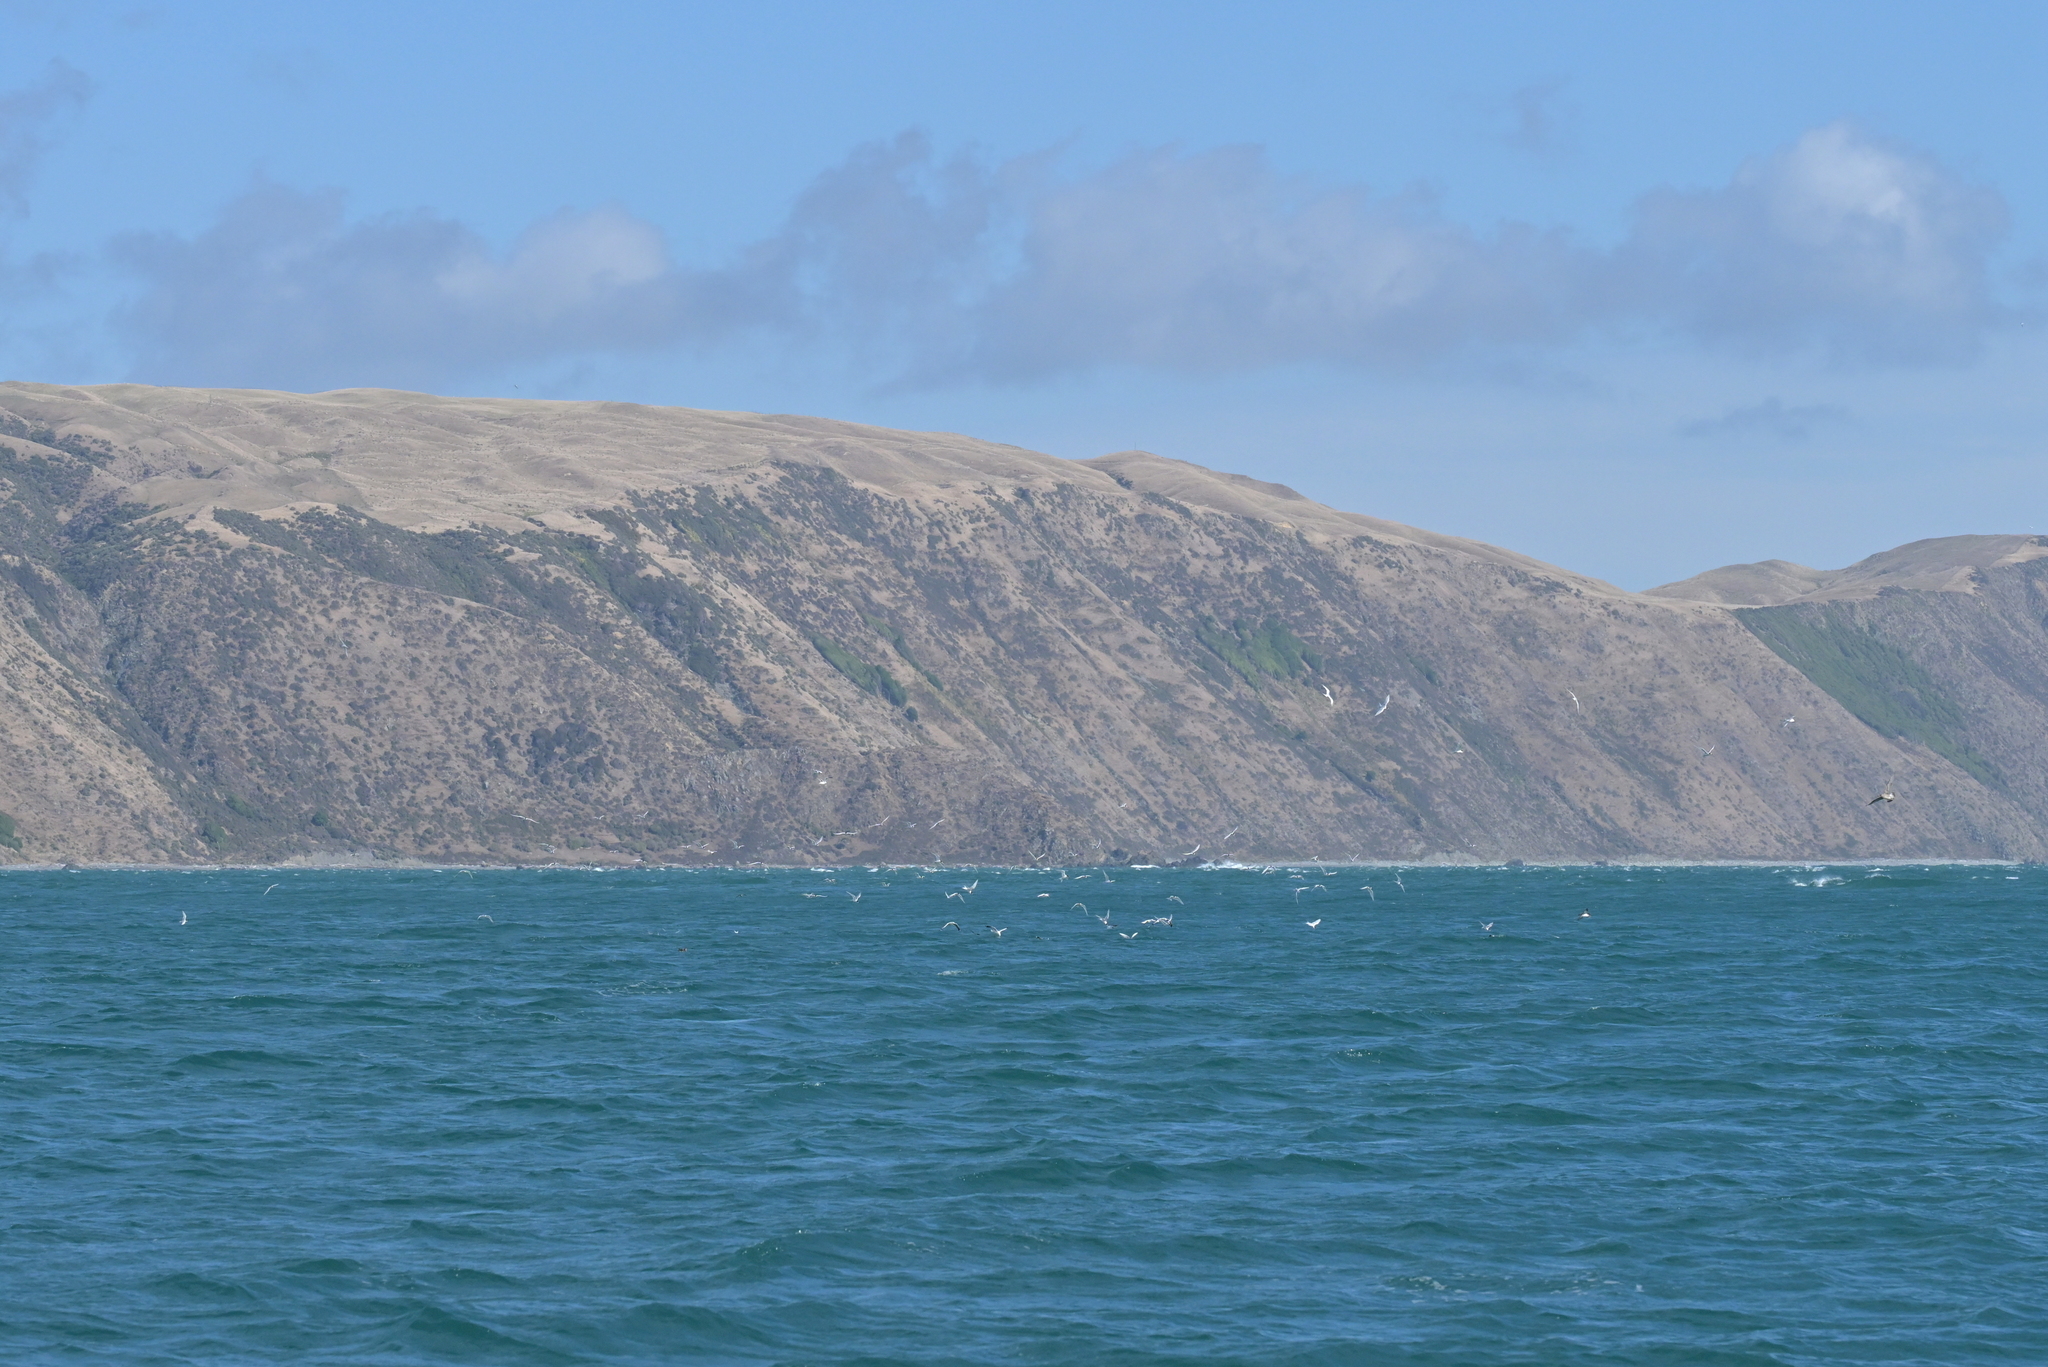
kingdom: Animalia
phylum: Chordata
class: Aves
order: Charadriiformes
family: Laridae
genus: Sterna
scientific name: Sterna striata
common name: White-fronted tern
